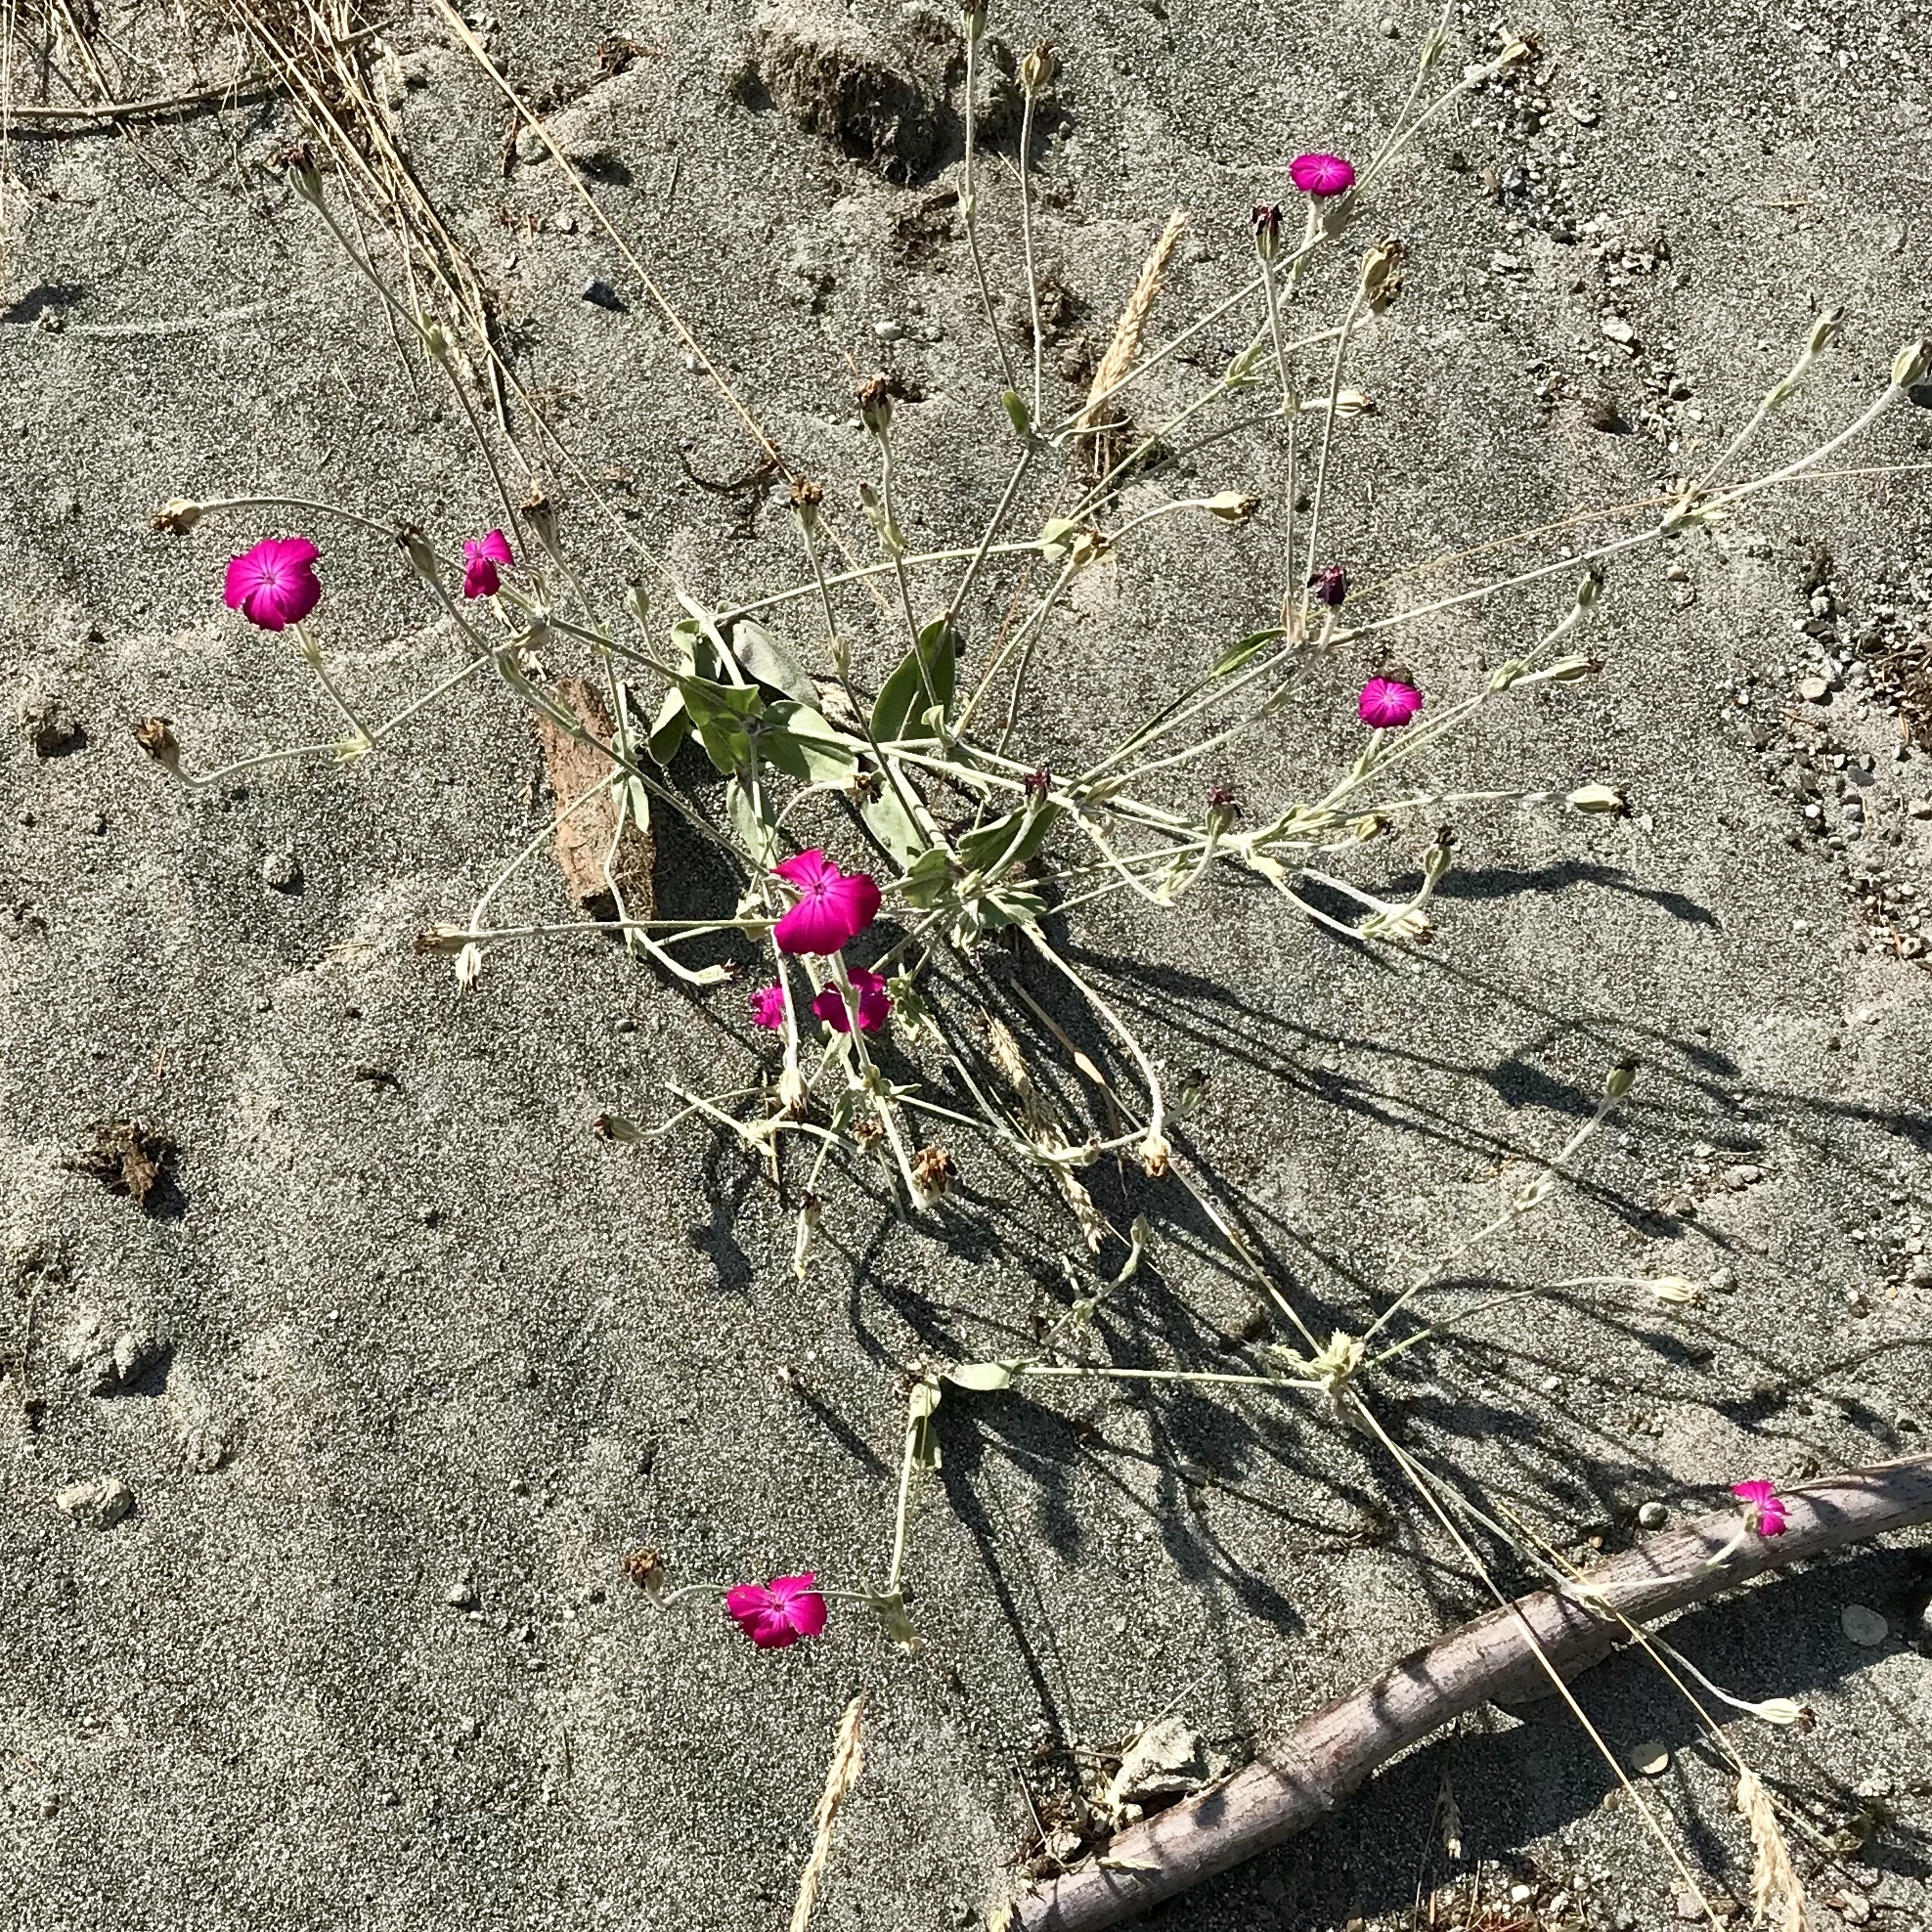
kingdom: Plantae
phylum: Tracheophyta
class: Magnoliopsida
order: Caryophyllales
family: Caryophyllaceae
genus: Silene
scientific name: Silene coronaria
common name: Rose campion
